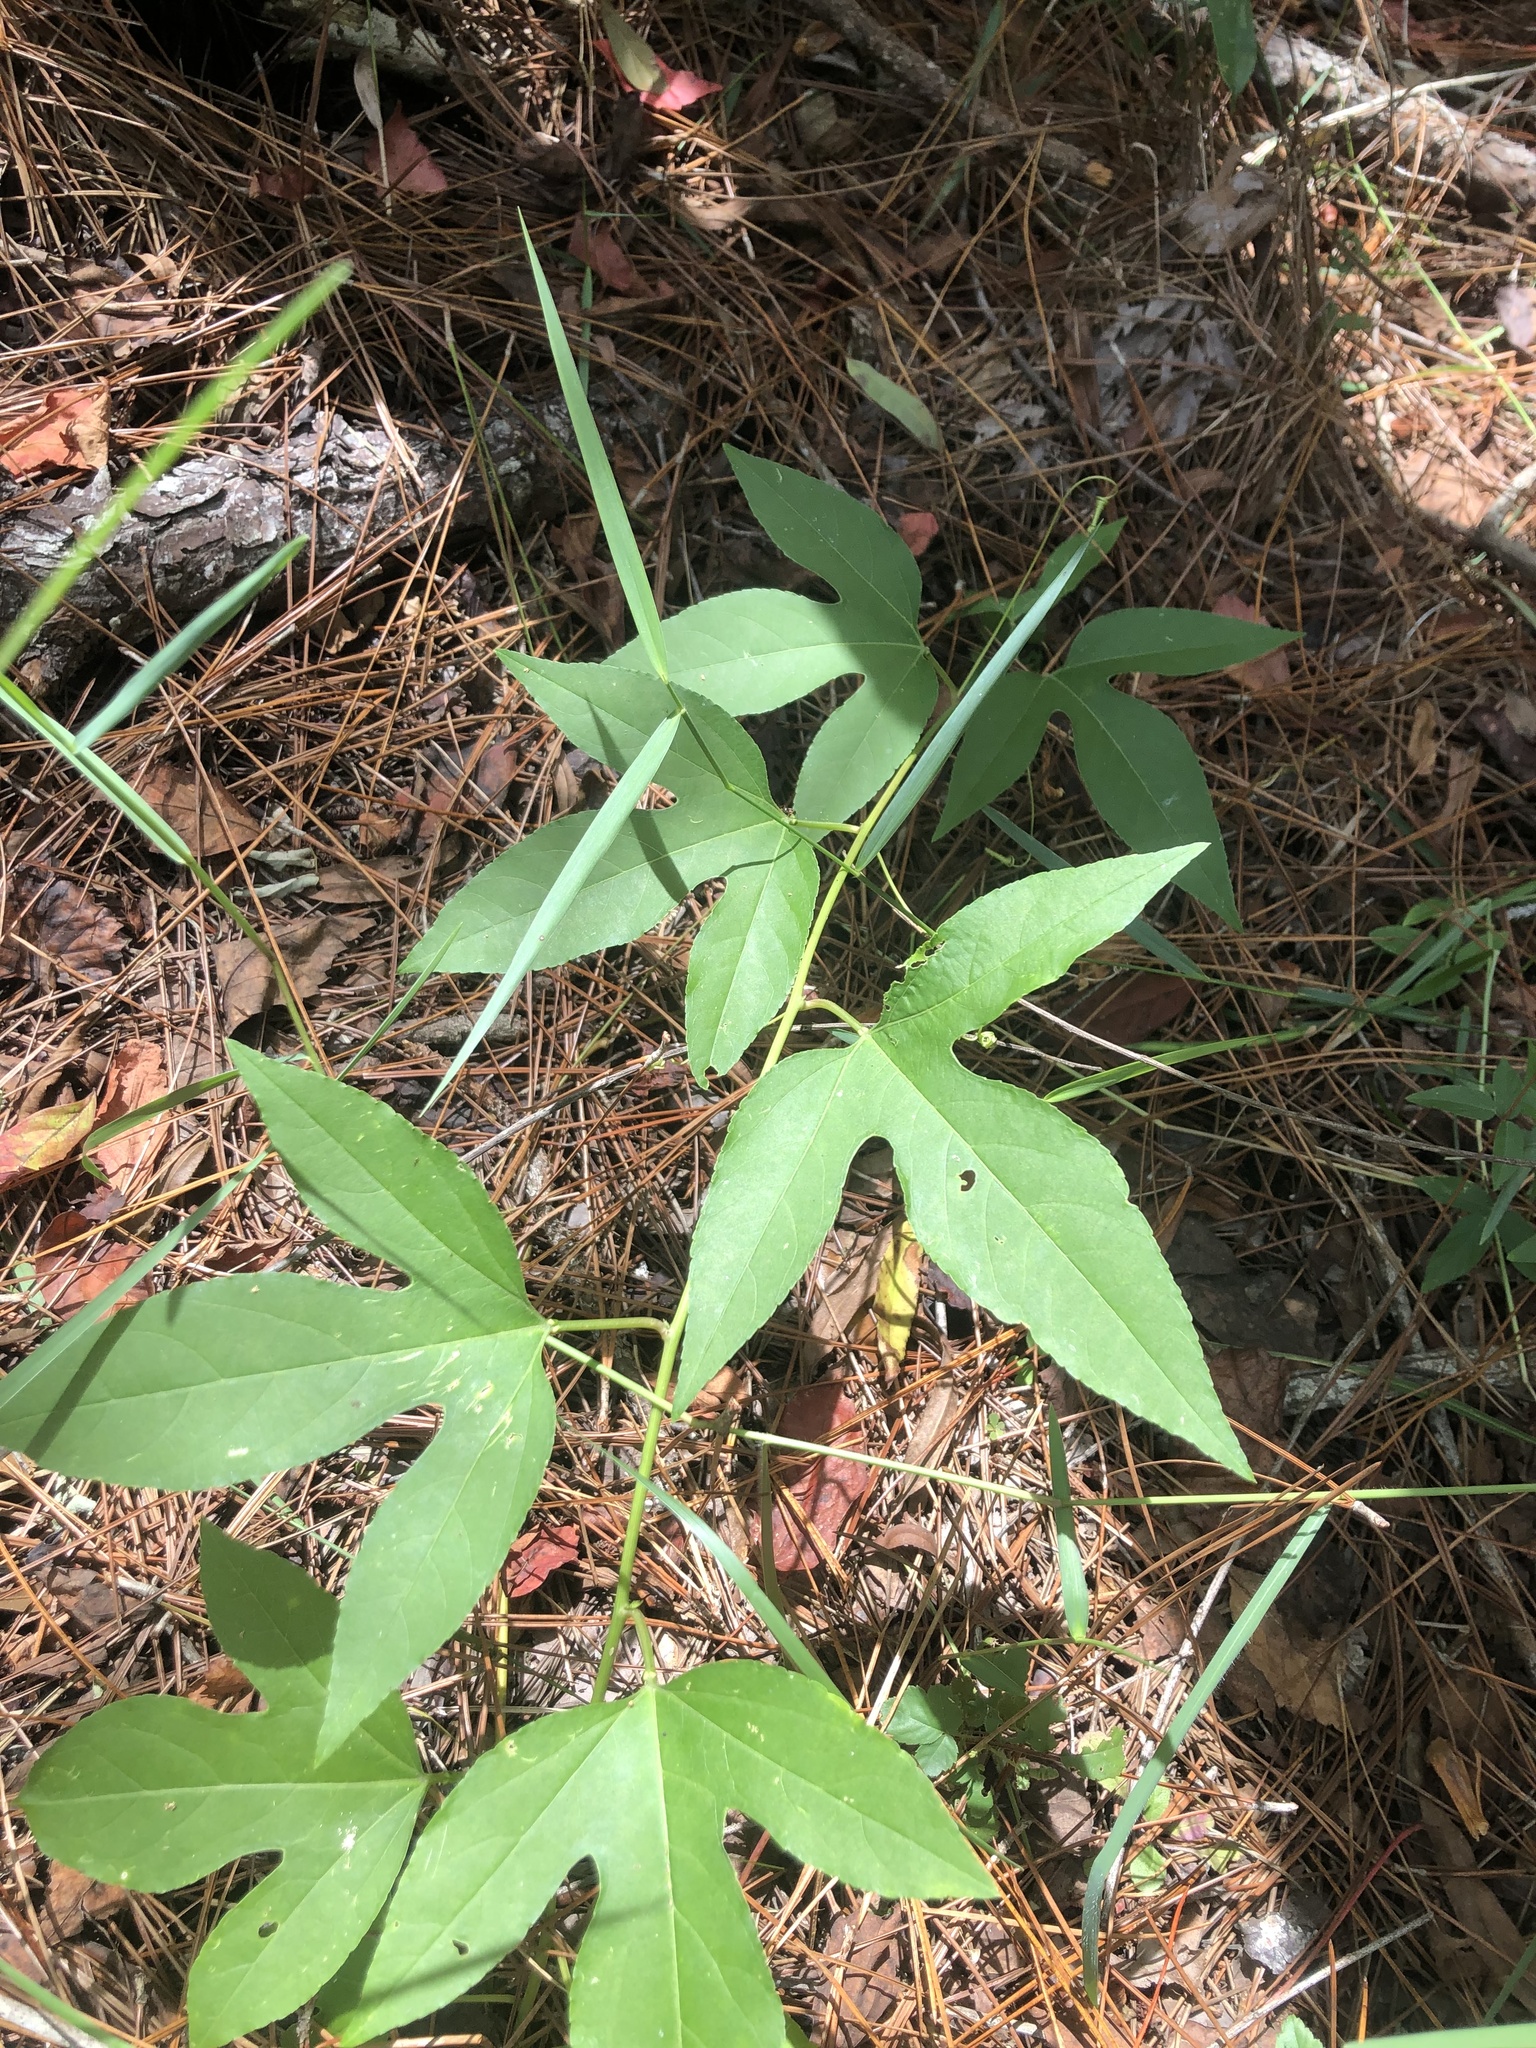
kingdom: Plantae
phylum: Tracheophyta
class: Magnoliopsida
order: Malpighiales
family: Passifloraceae
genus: Passiflora
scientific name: Passiflora incarnata
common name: Apricot-vine
